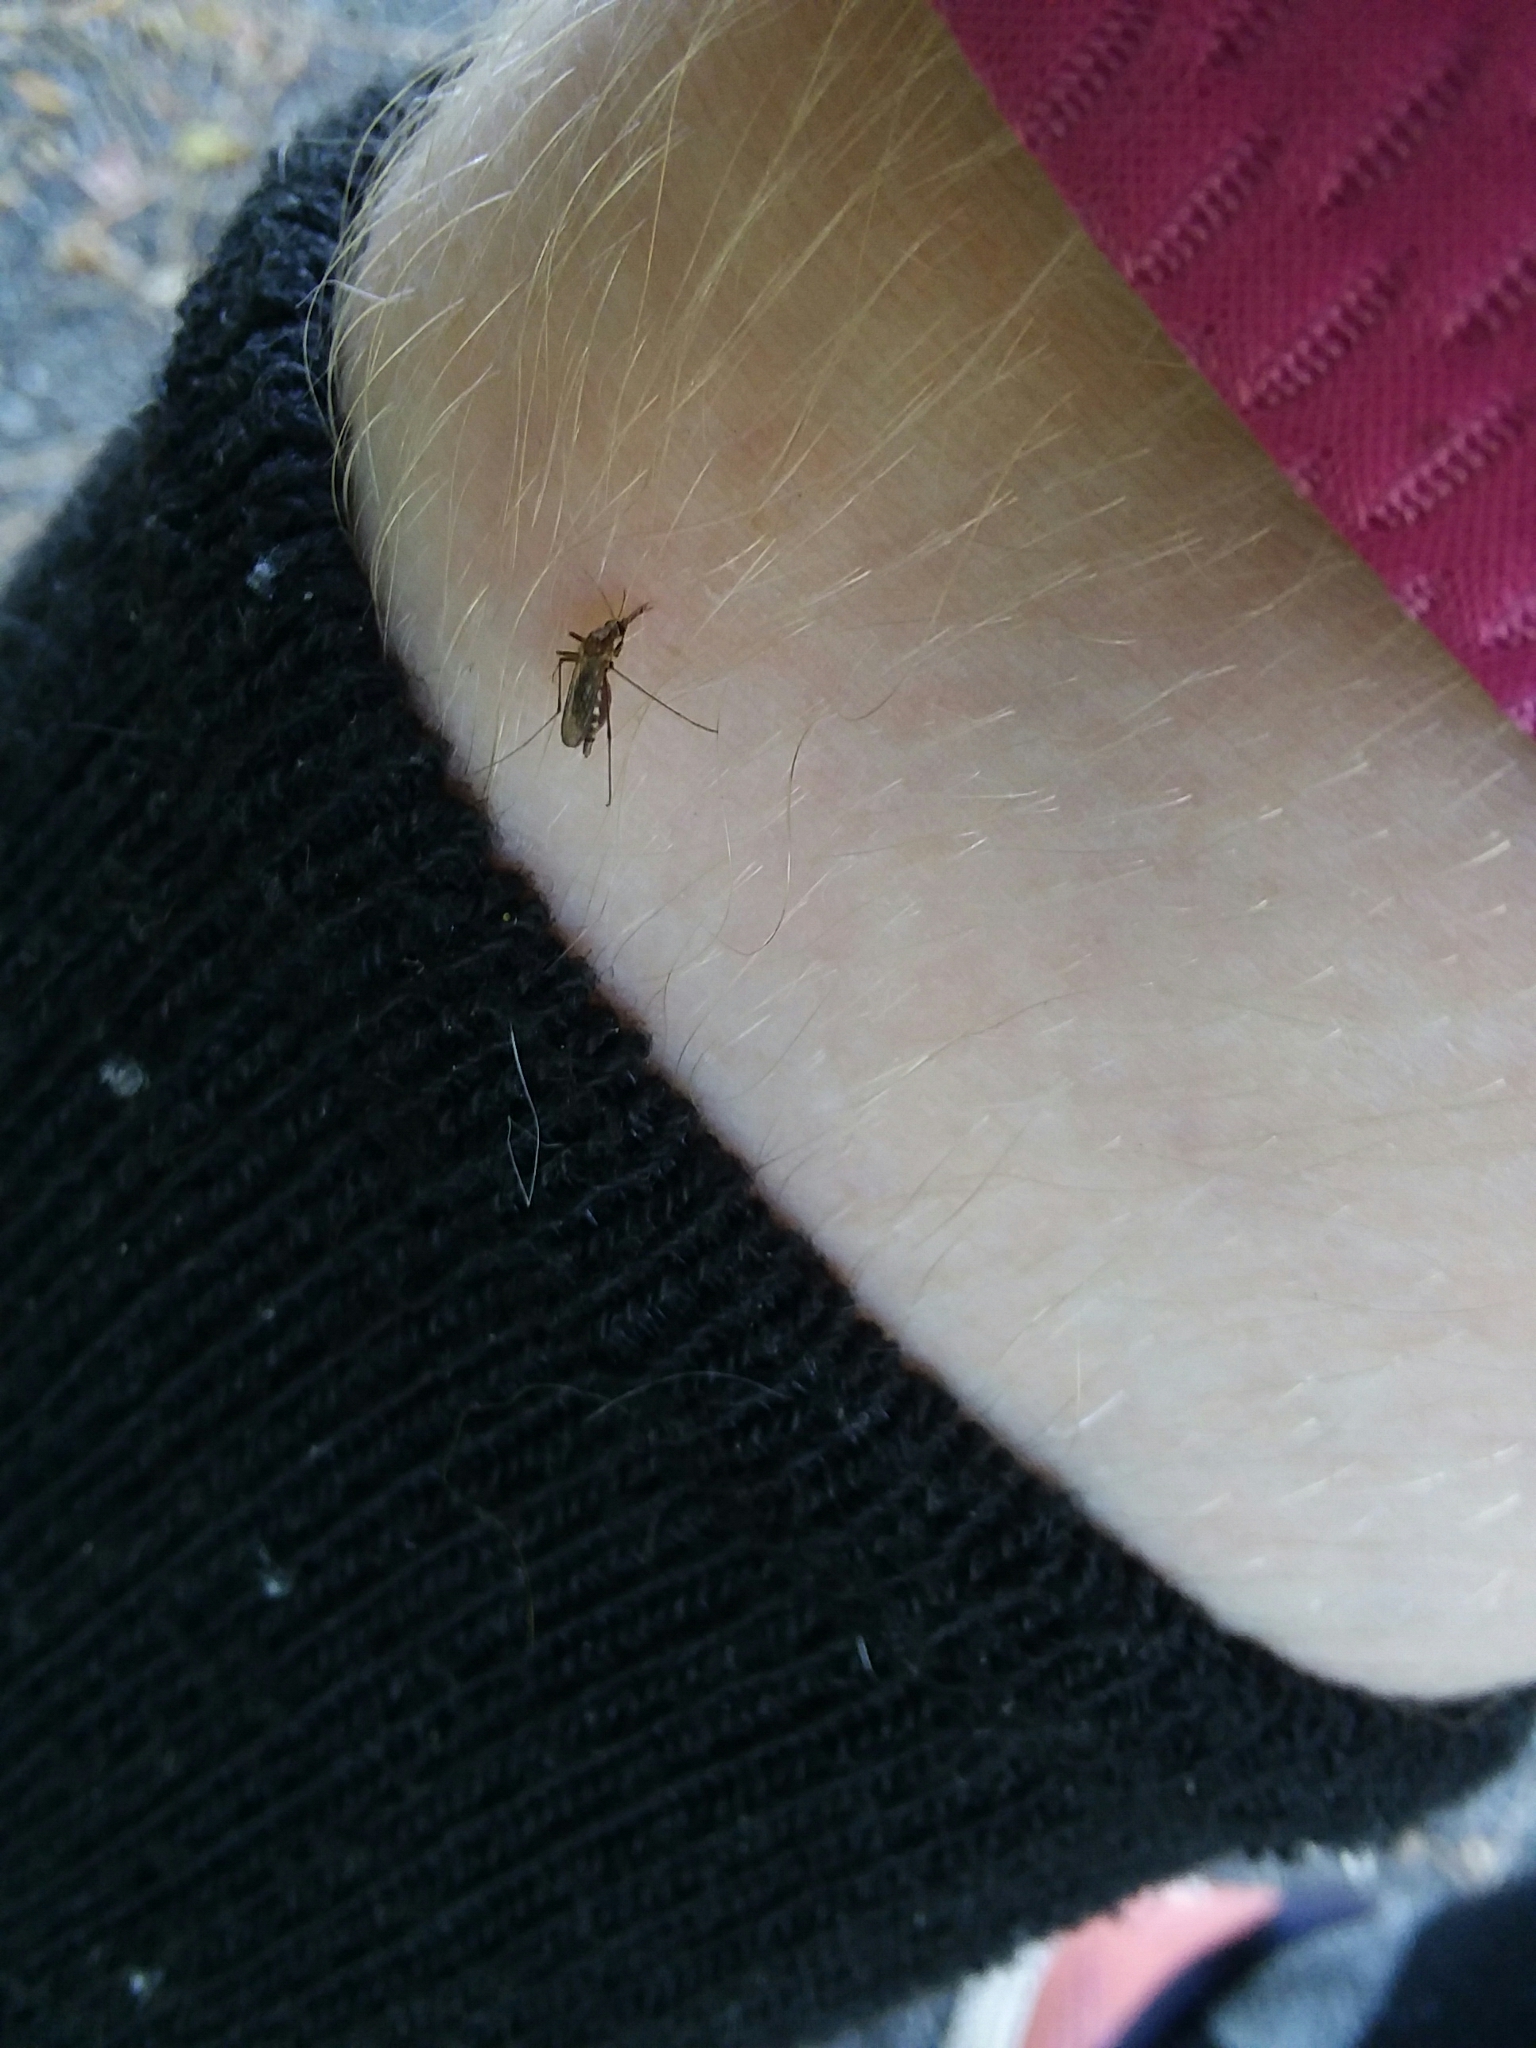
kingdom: Animalia
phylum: Arthropoda
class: Insecta
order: Diptera
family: Culicidae
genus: Aedes
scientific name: Aedes infirmatus
